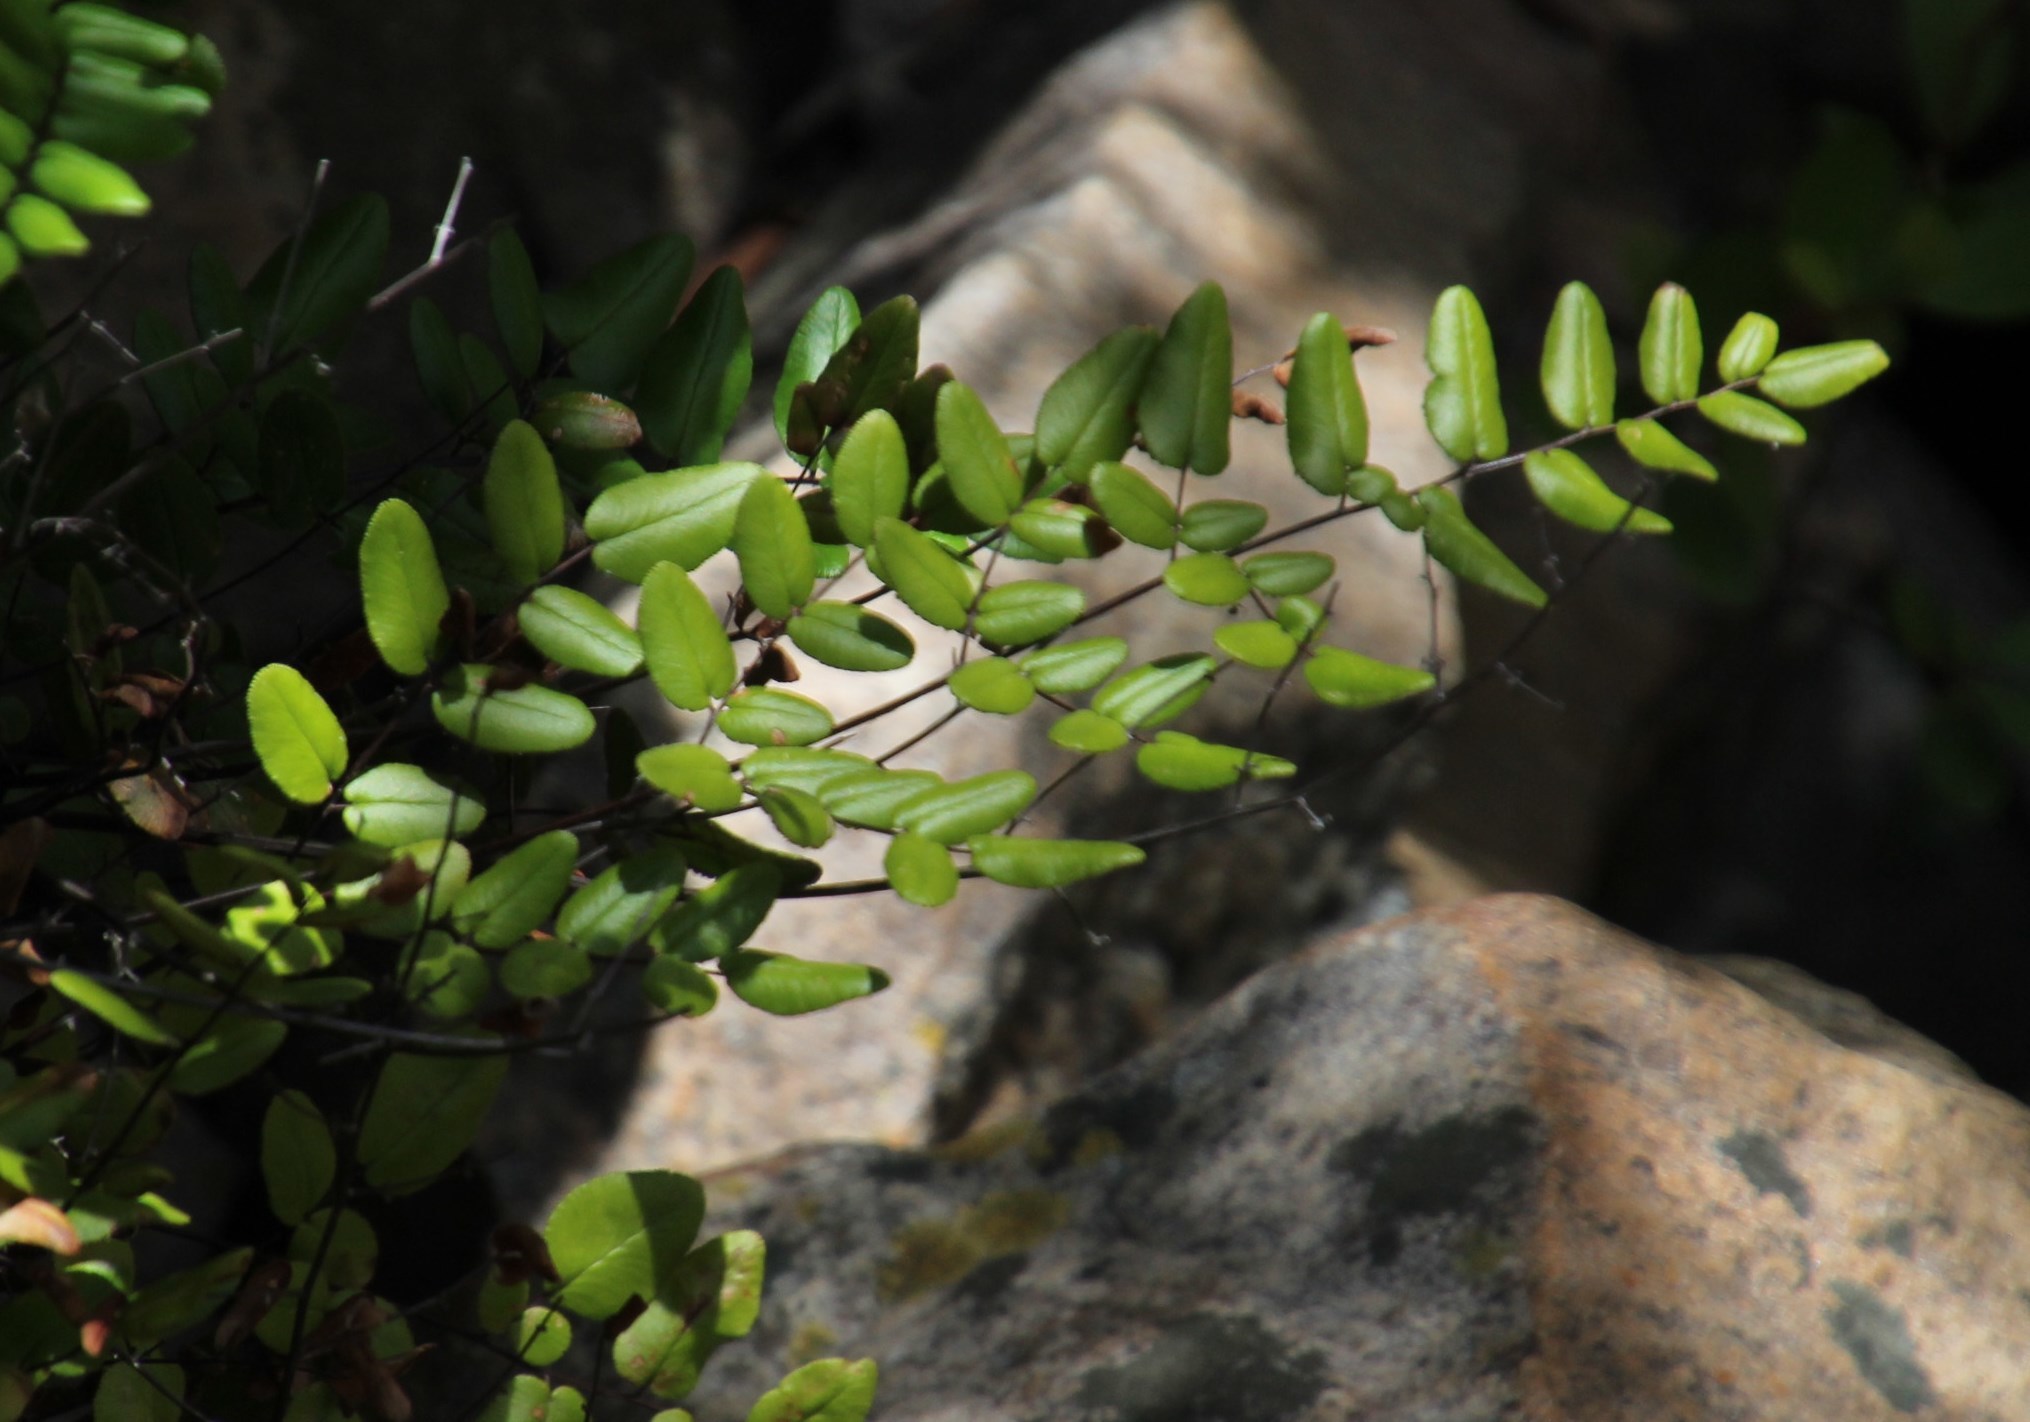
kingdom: Plantae
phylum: Tracheophyta
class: Polypodiopsida
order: Polypodiales
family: Pteridaceae
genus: Pellaea
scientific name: Pellaea pteroides
